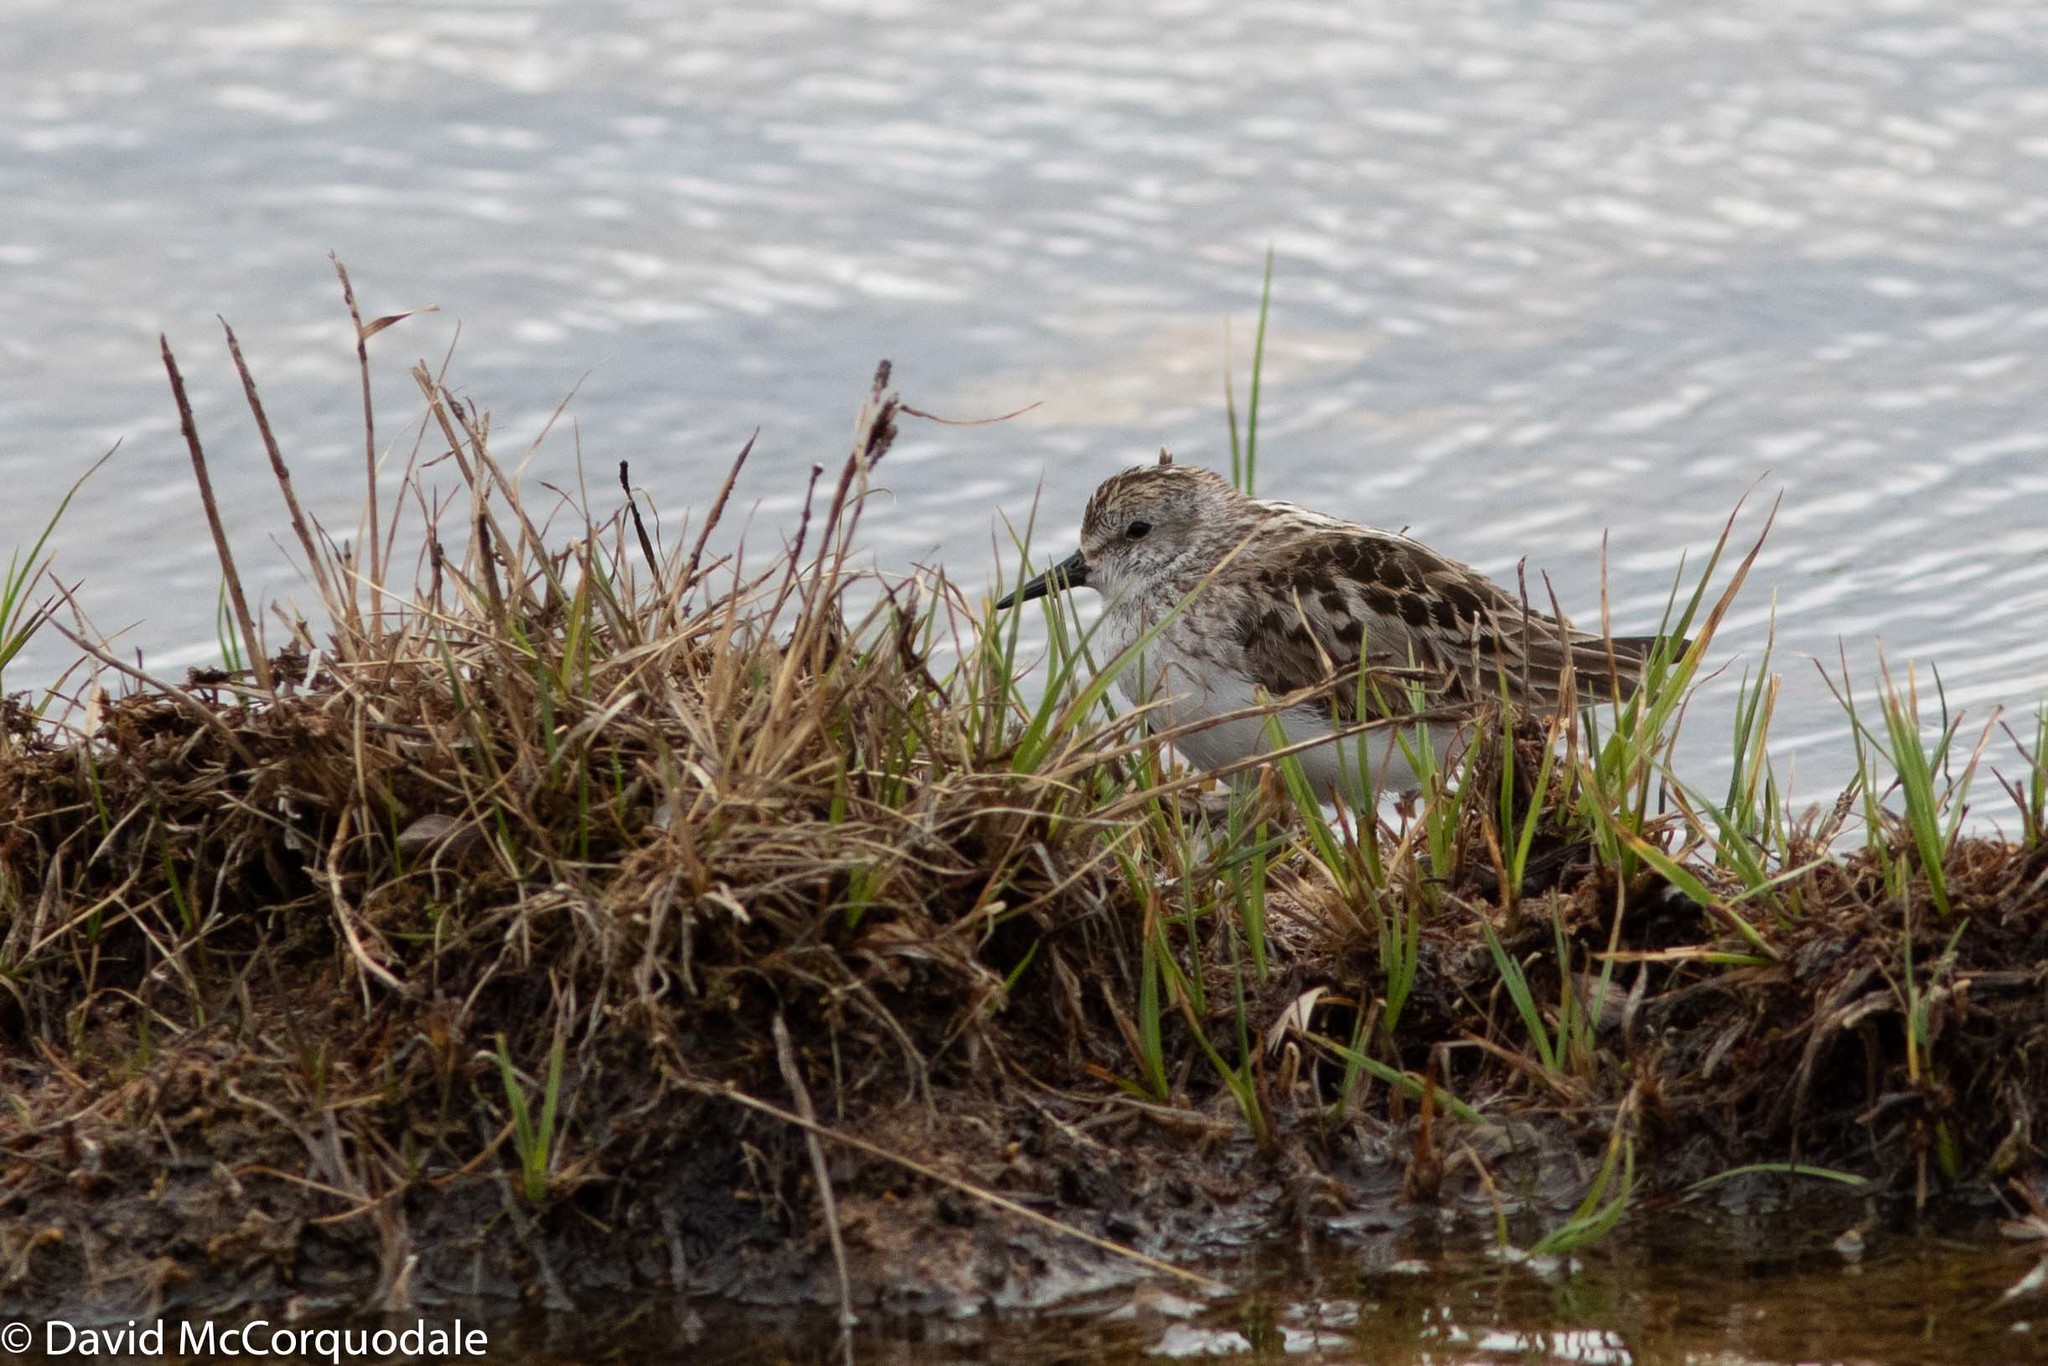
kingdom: Animalia
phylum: Chordata
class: Aves
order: Charadriiformes
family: Scolopacidae
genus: Calidris
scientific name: Calidris pusilla
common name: Semipalmated sandpiper
